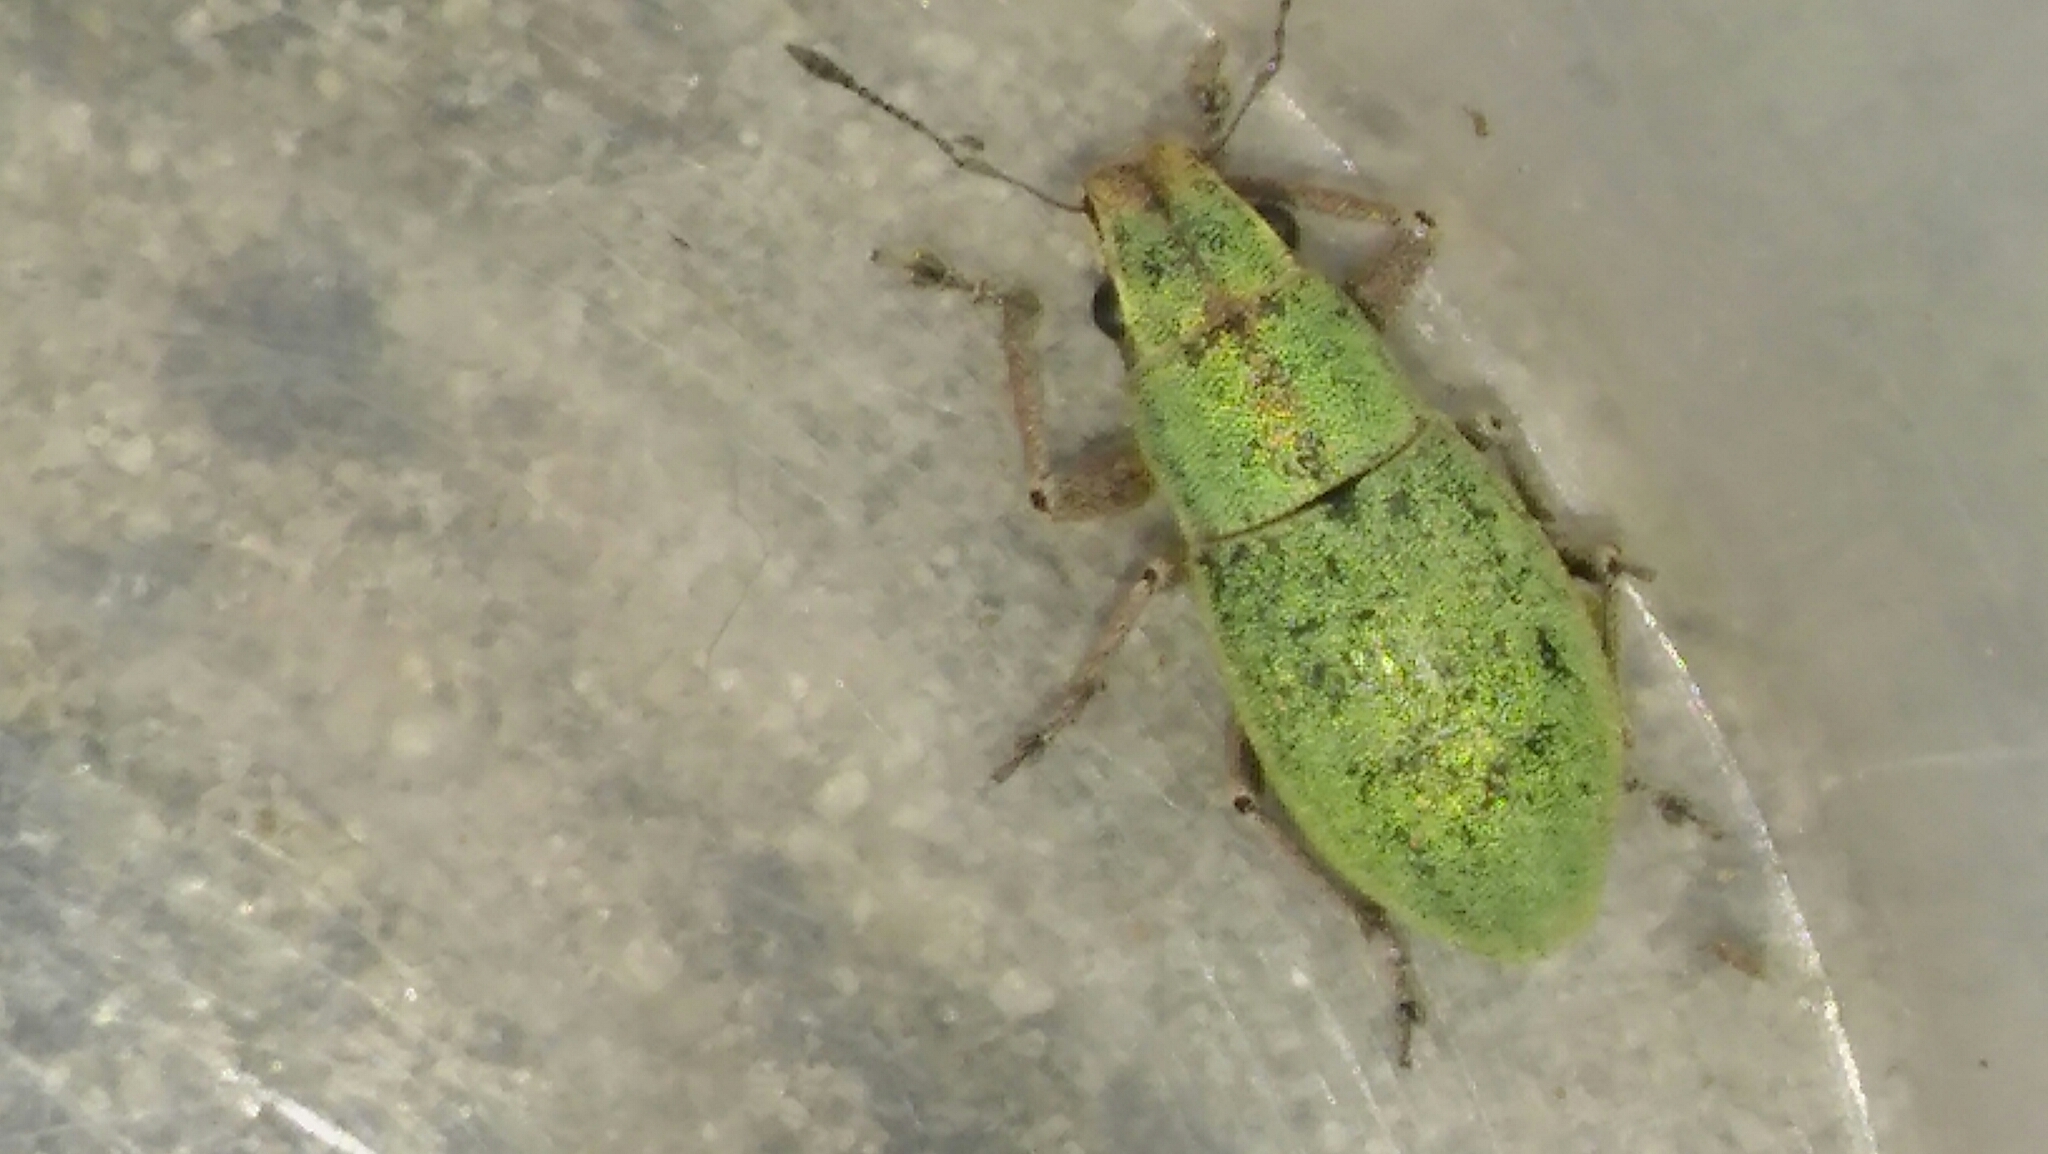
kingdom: Animalia
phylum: Arthropoda
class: Insecta
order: Coleoptera
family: Curculionidae
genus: Pantomorus
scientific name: Pantomorus viridisquamosus
